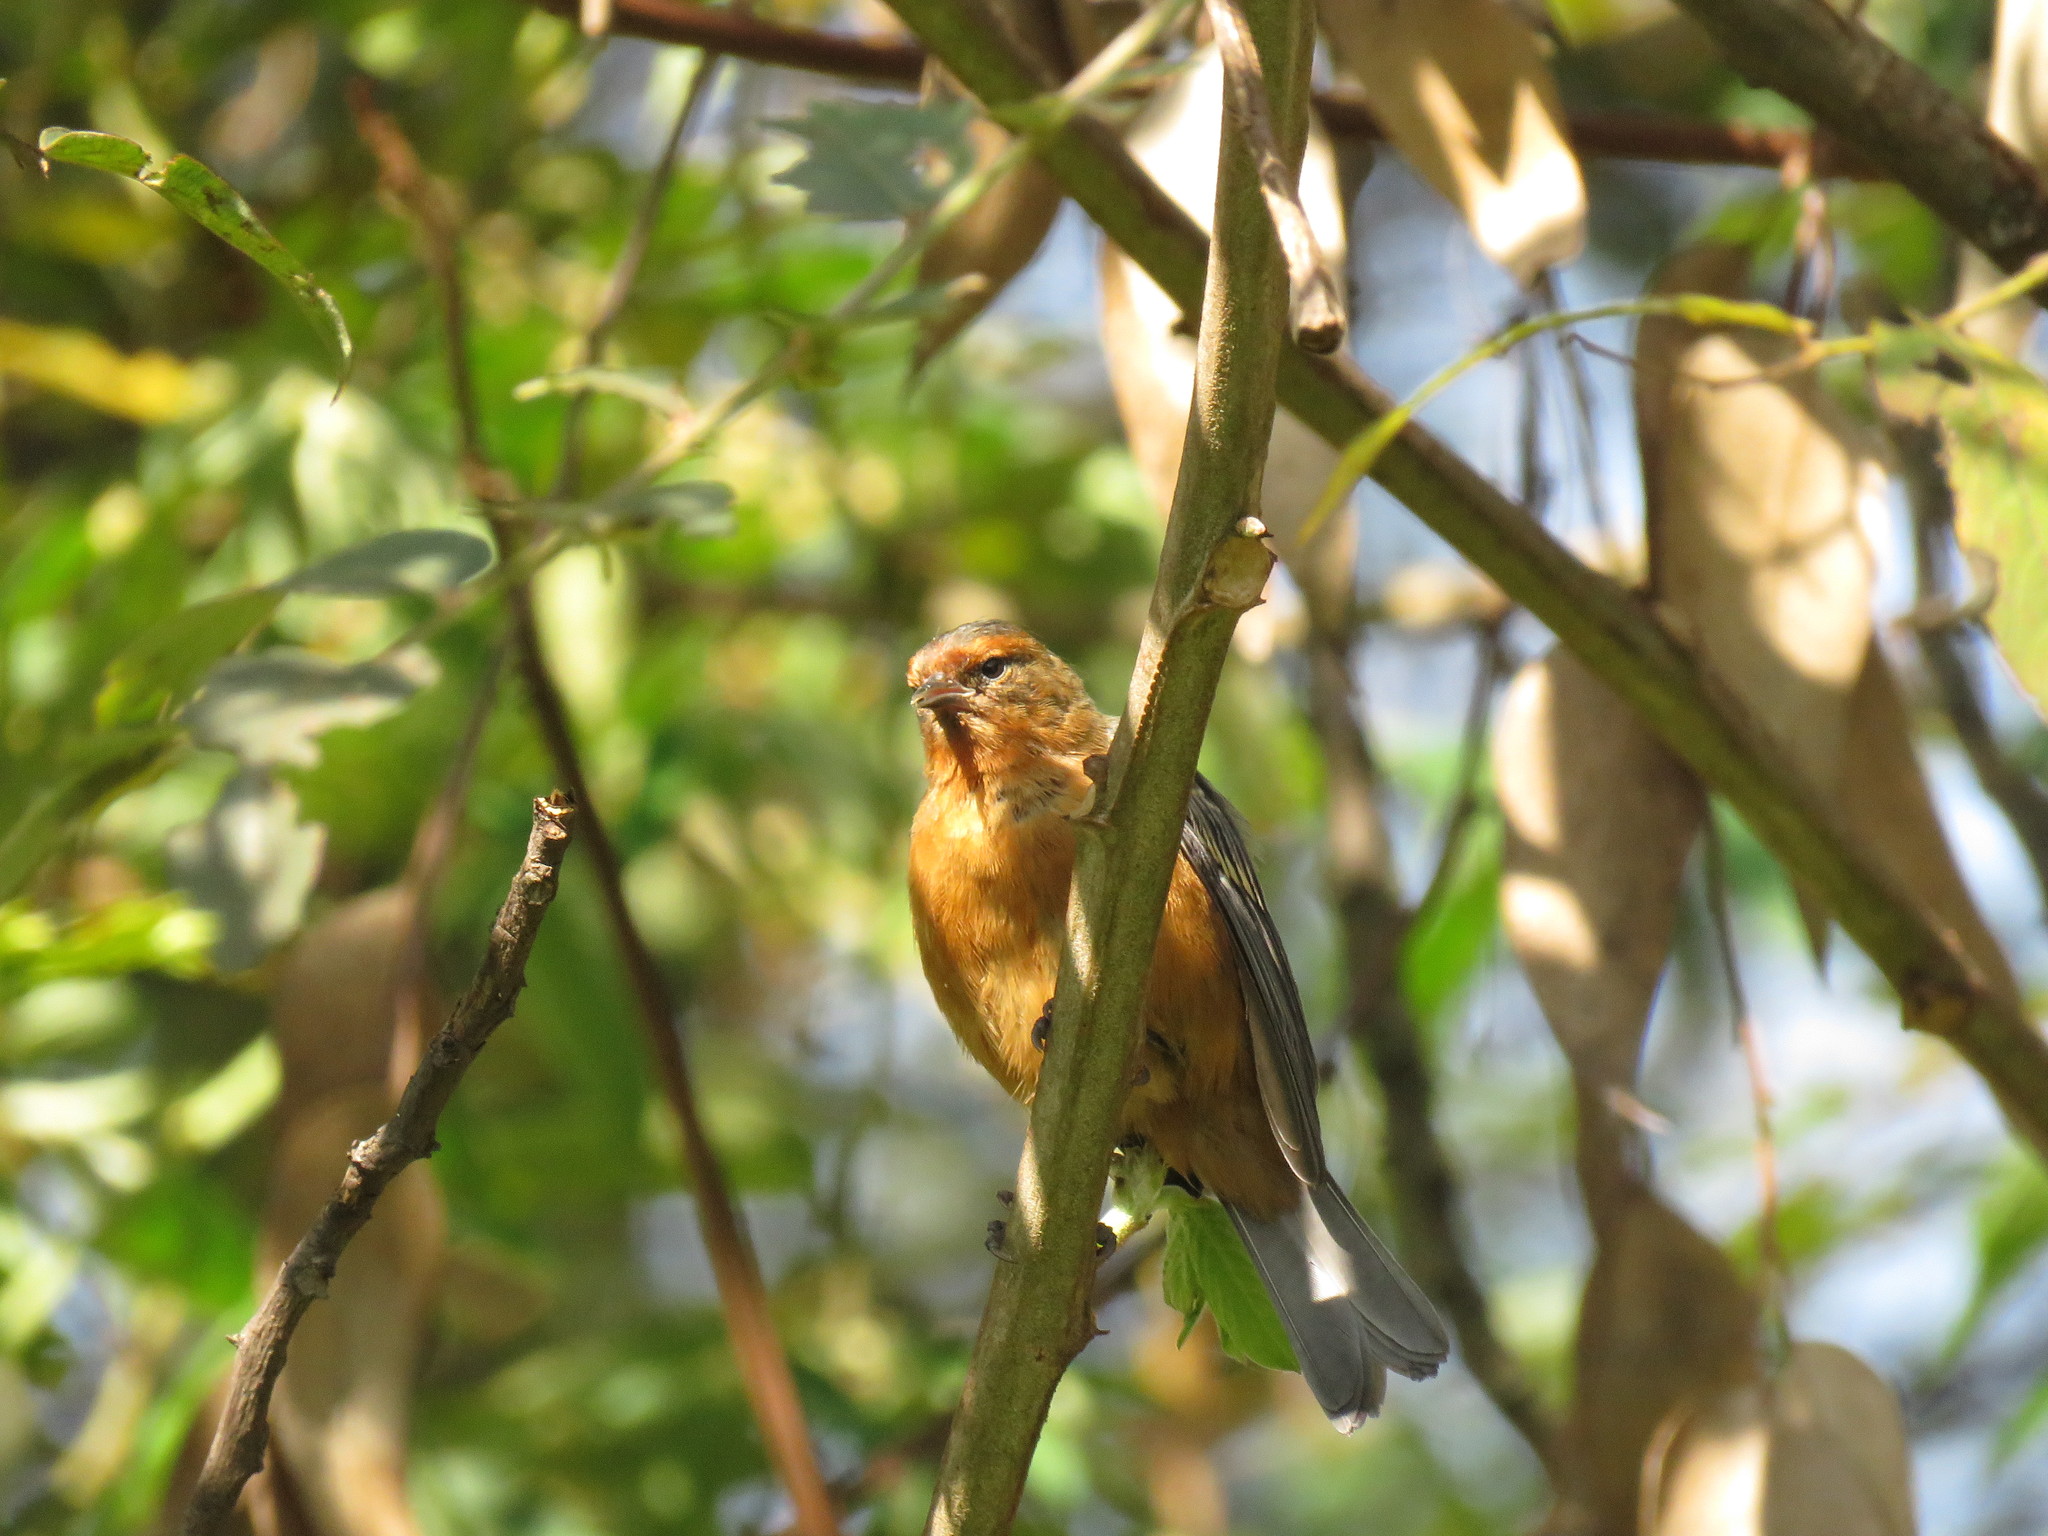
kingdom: Animalia
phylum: Chordata
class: Aves
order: Passeriformes
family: Thraupidae
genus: Conirostrum
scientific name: Conirostrum rufum
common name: Rufous-browed conebill
